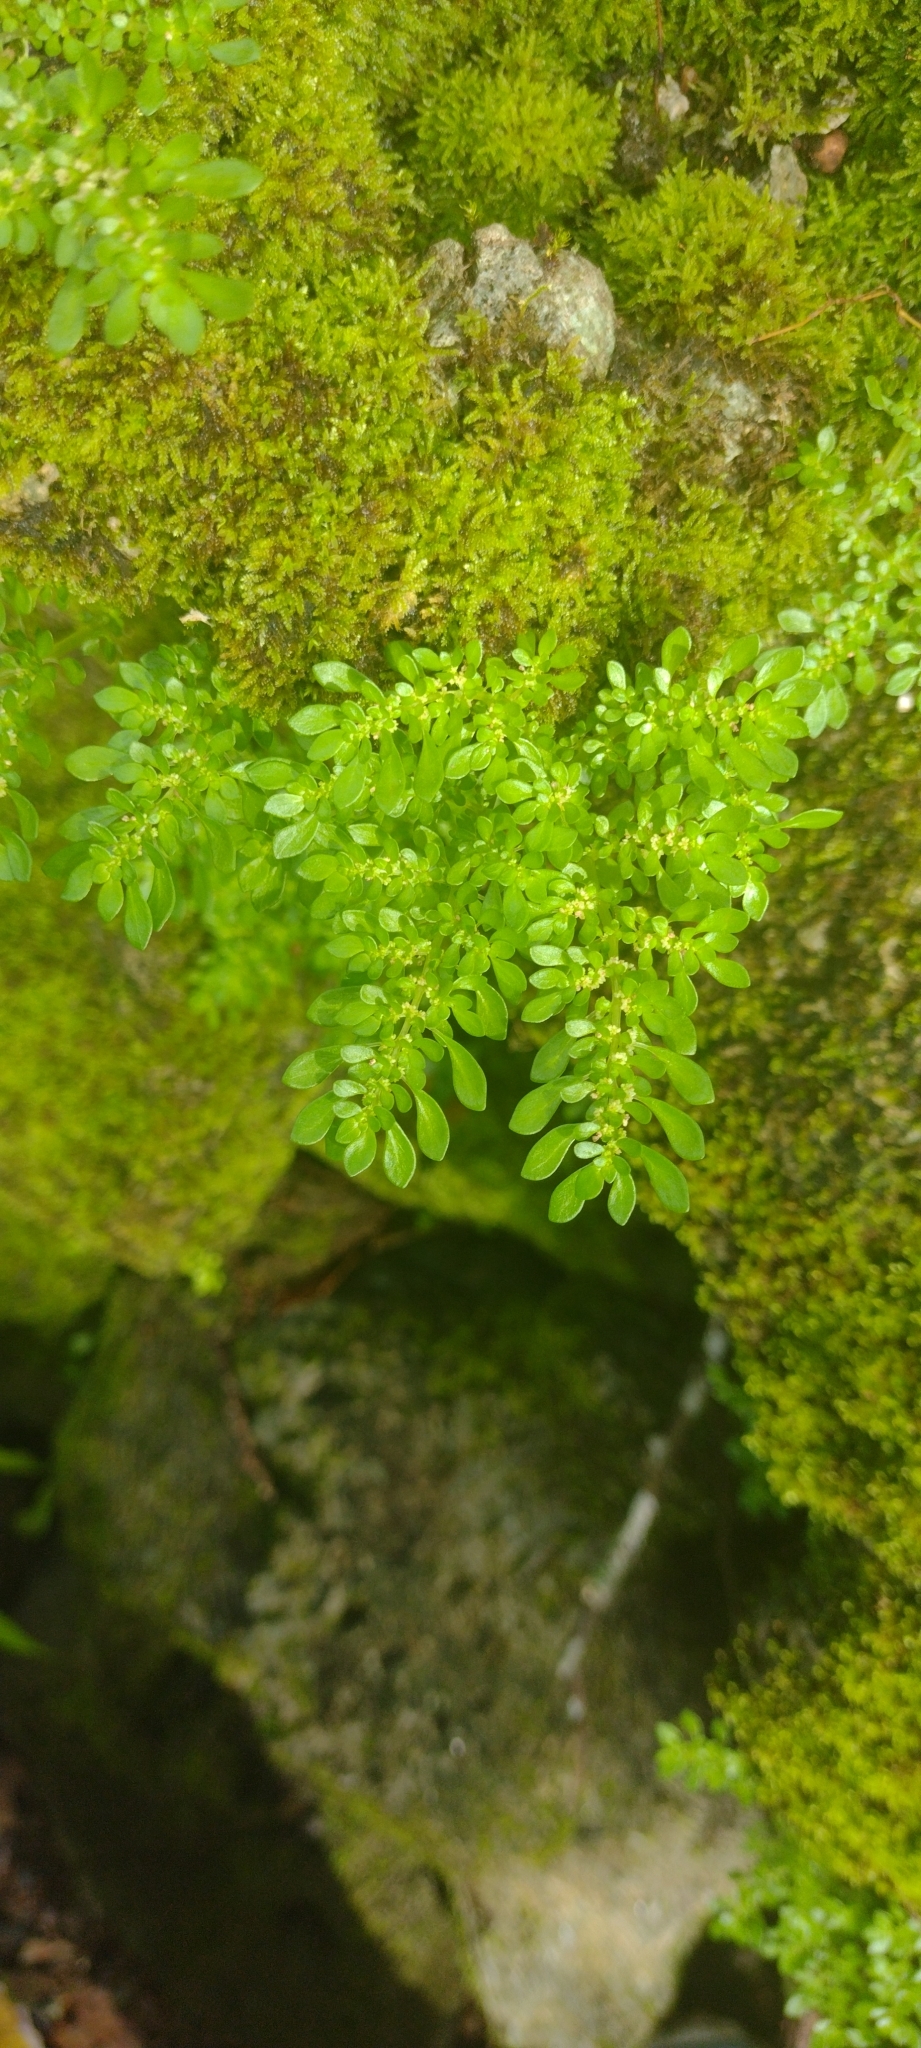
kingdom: Plantae
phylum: Tracheophyta
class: Magnoliopsida
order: Rosales
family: Urticaceae
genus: Pilea
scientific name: Pilea microphylla
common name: Artillery-plant
